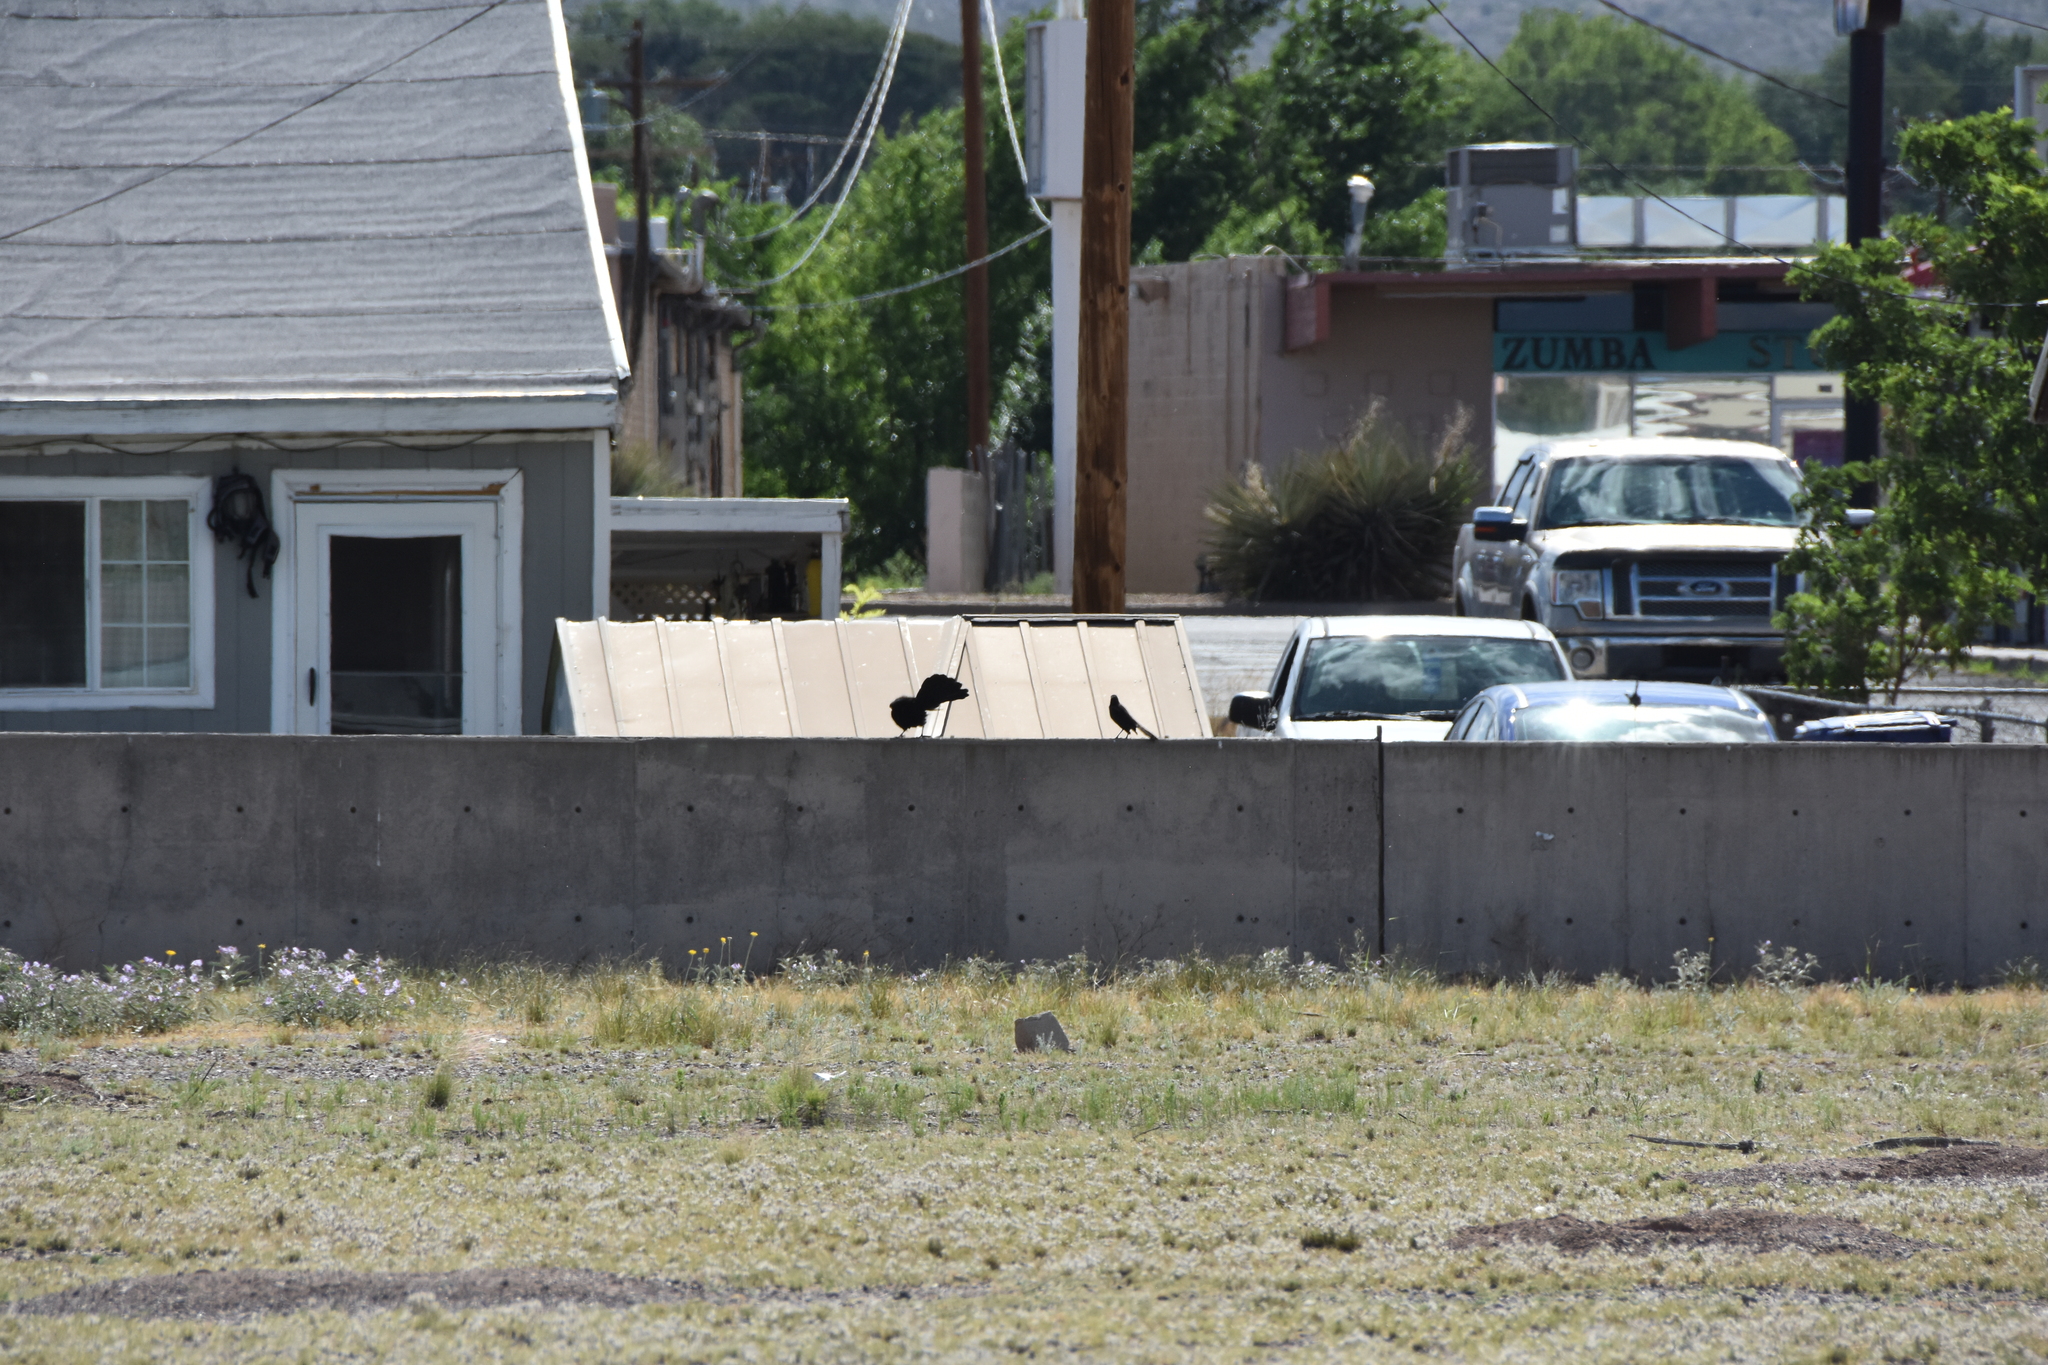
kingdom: Animalia
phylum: Chordata
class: Aves
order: Passeriformes
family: Icteridae
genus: Quiscalus
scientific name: Quiscalus mexicanus
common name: Great-tailed grackle
